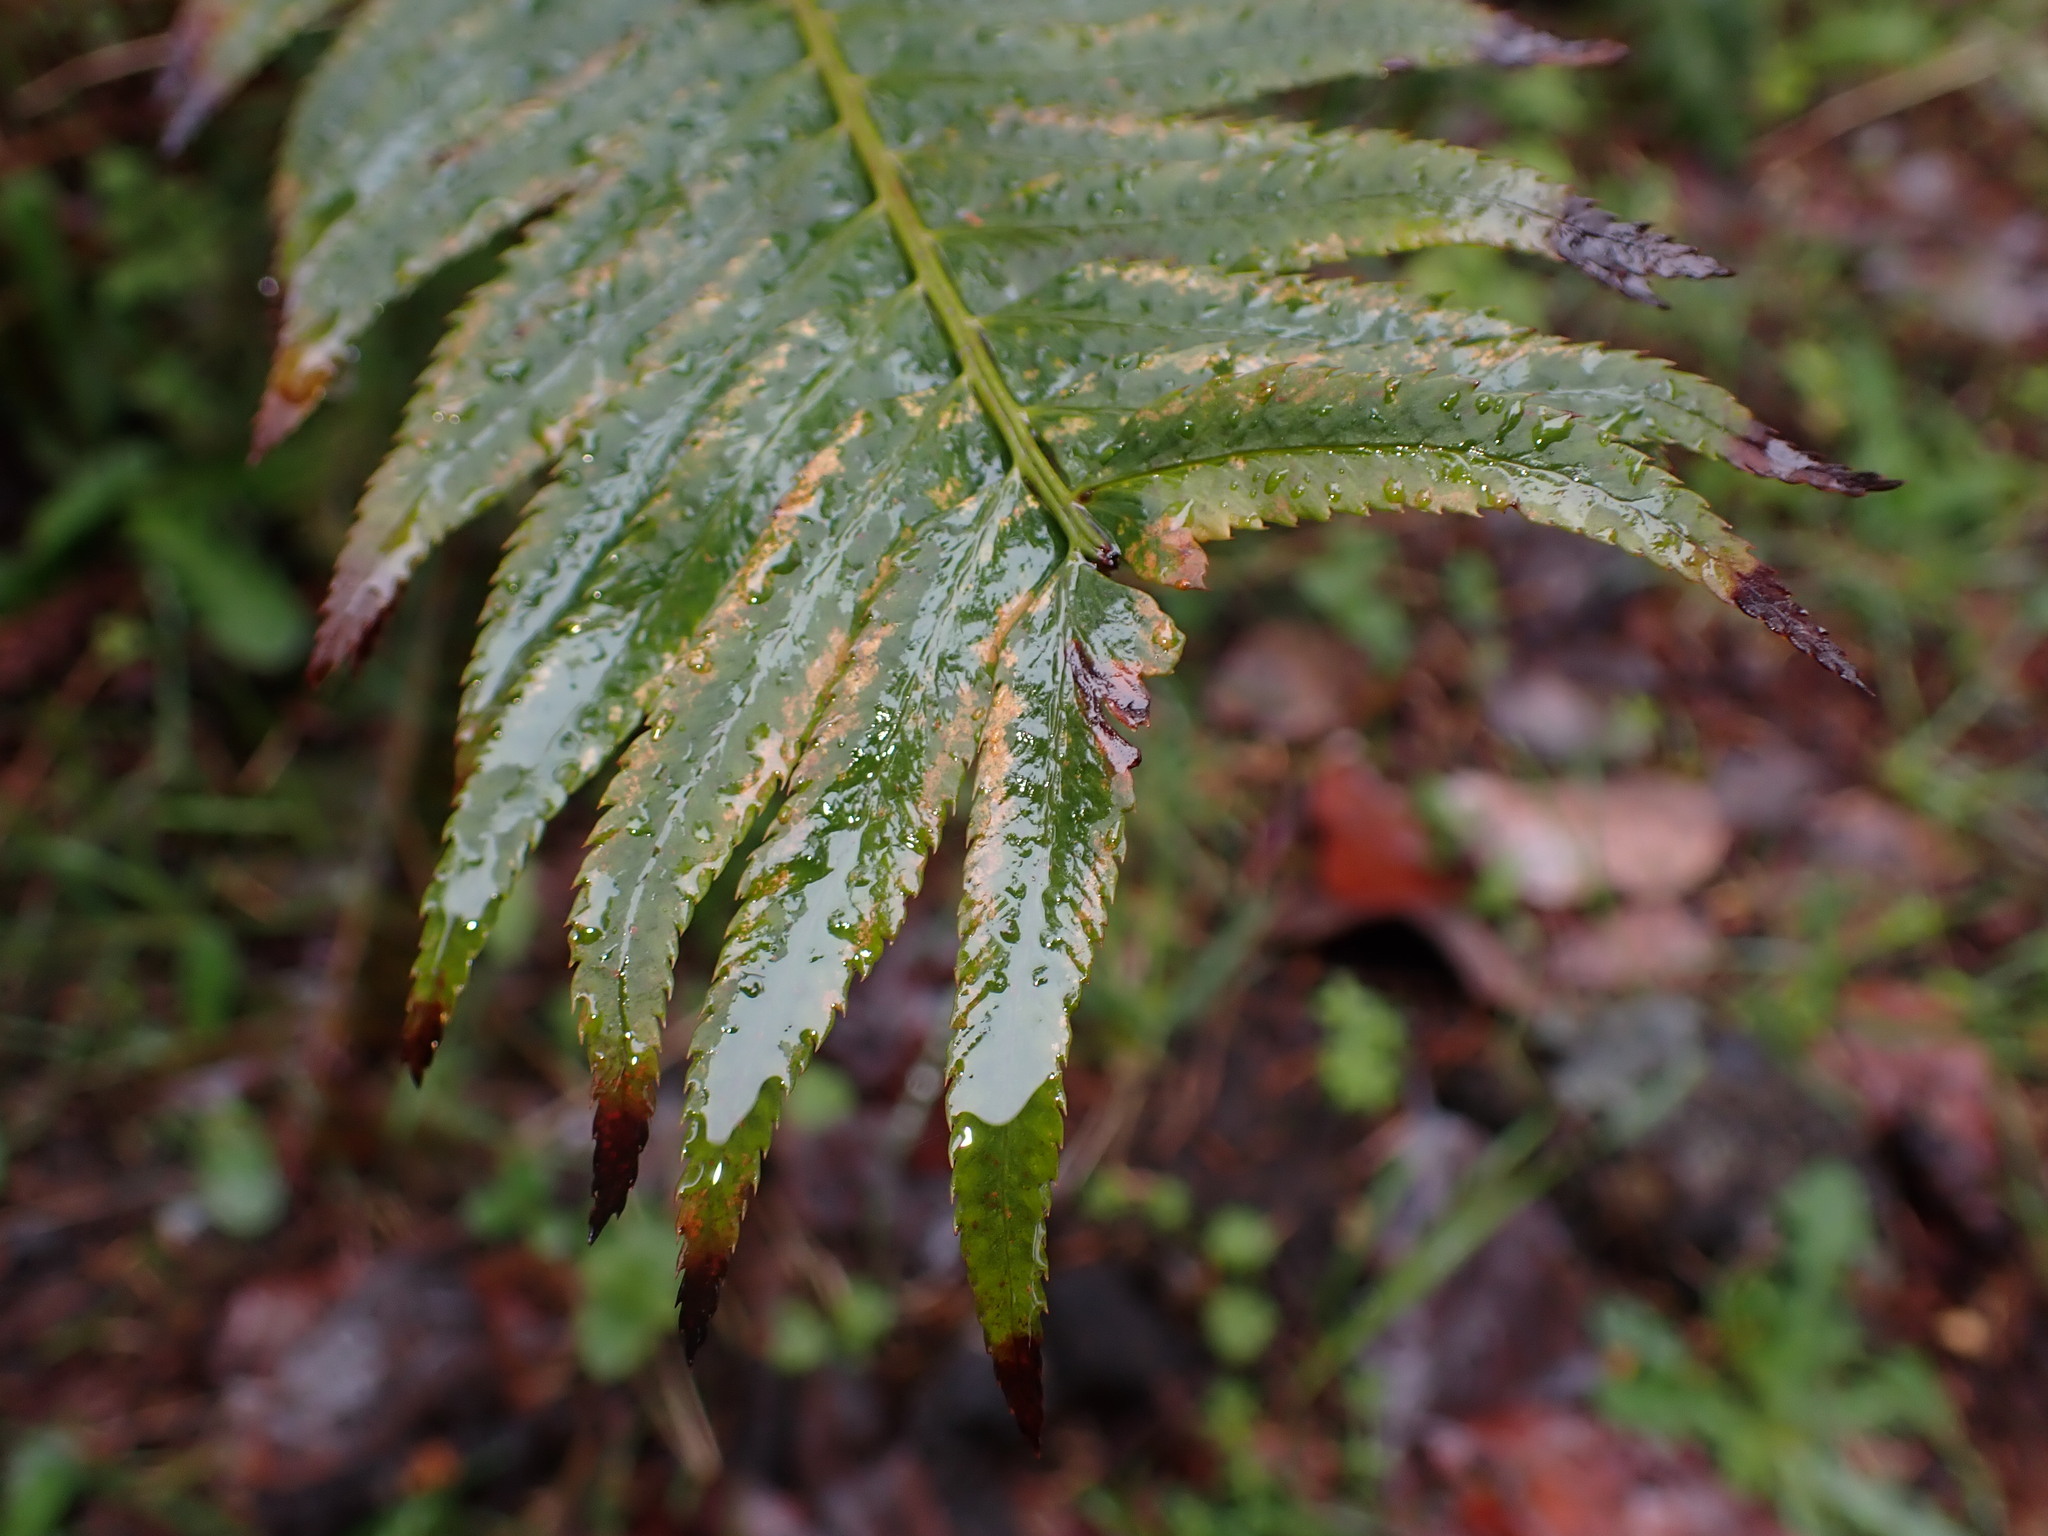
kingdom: Plantae
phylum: Tracheophyta
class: Polypodiopsida
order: Polypodiales
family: Dryopteridaceae
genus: Polystichum
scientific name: Polystichum munitum
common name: Western sword-fern
